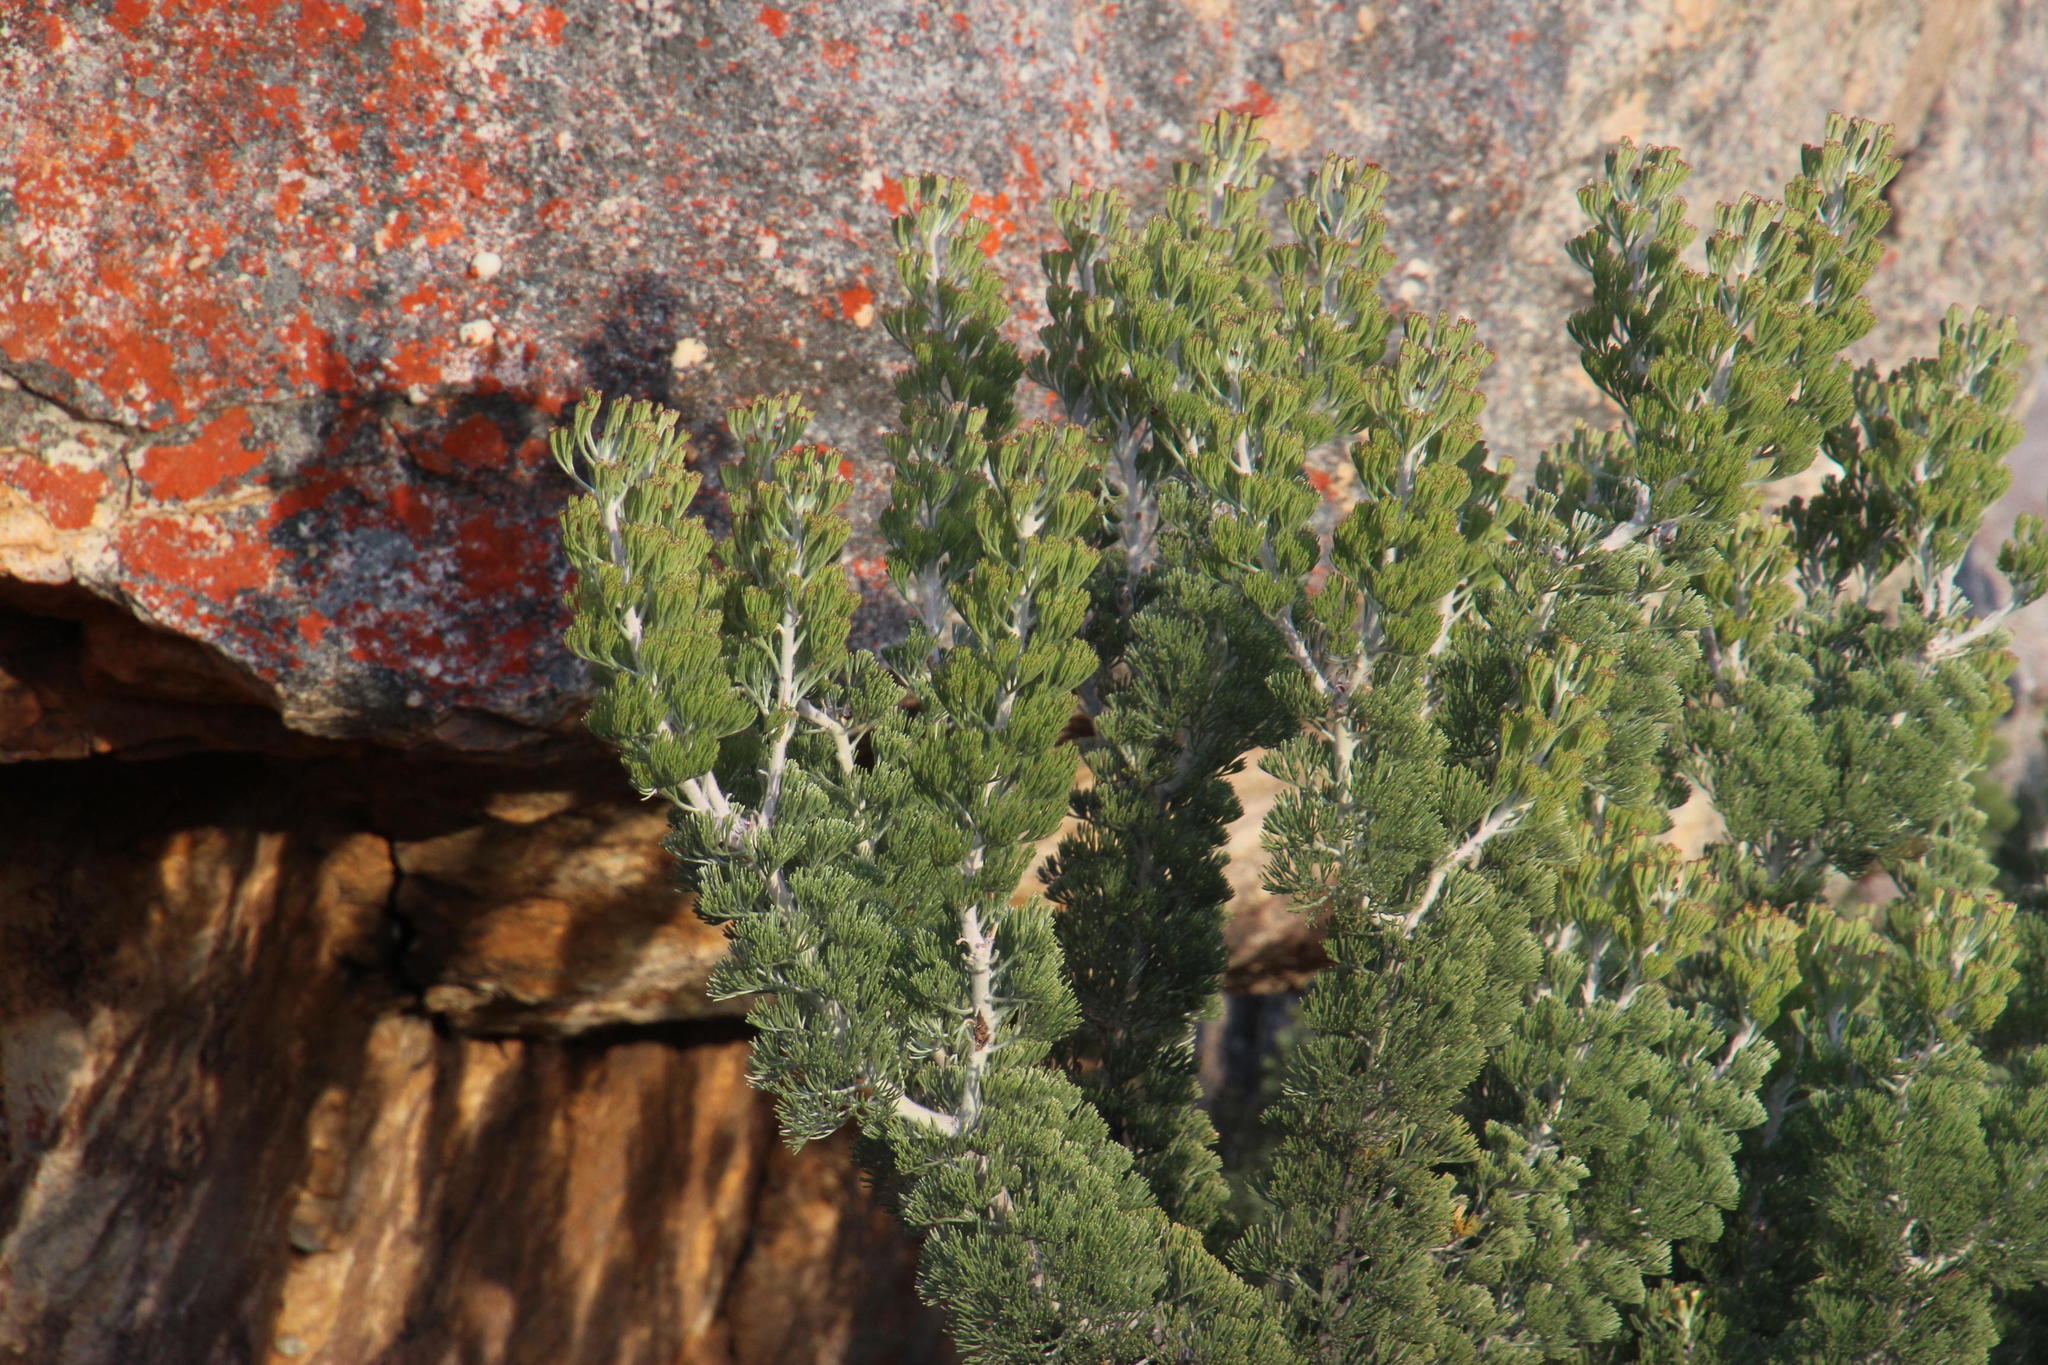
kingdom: Plantae
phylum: Tracheophyta
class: Magnoliopsida
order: Proteales
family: Proteaceae
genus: Paranomus
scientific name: Paranomus tomentosus
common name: Hairy-leaf tree sceptre
